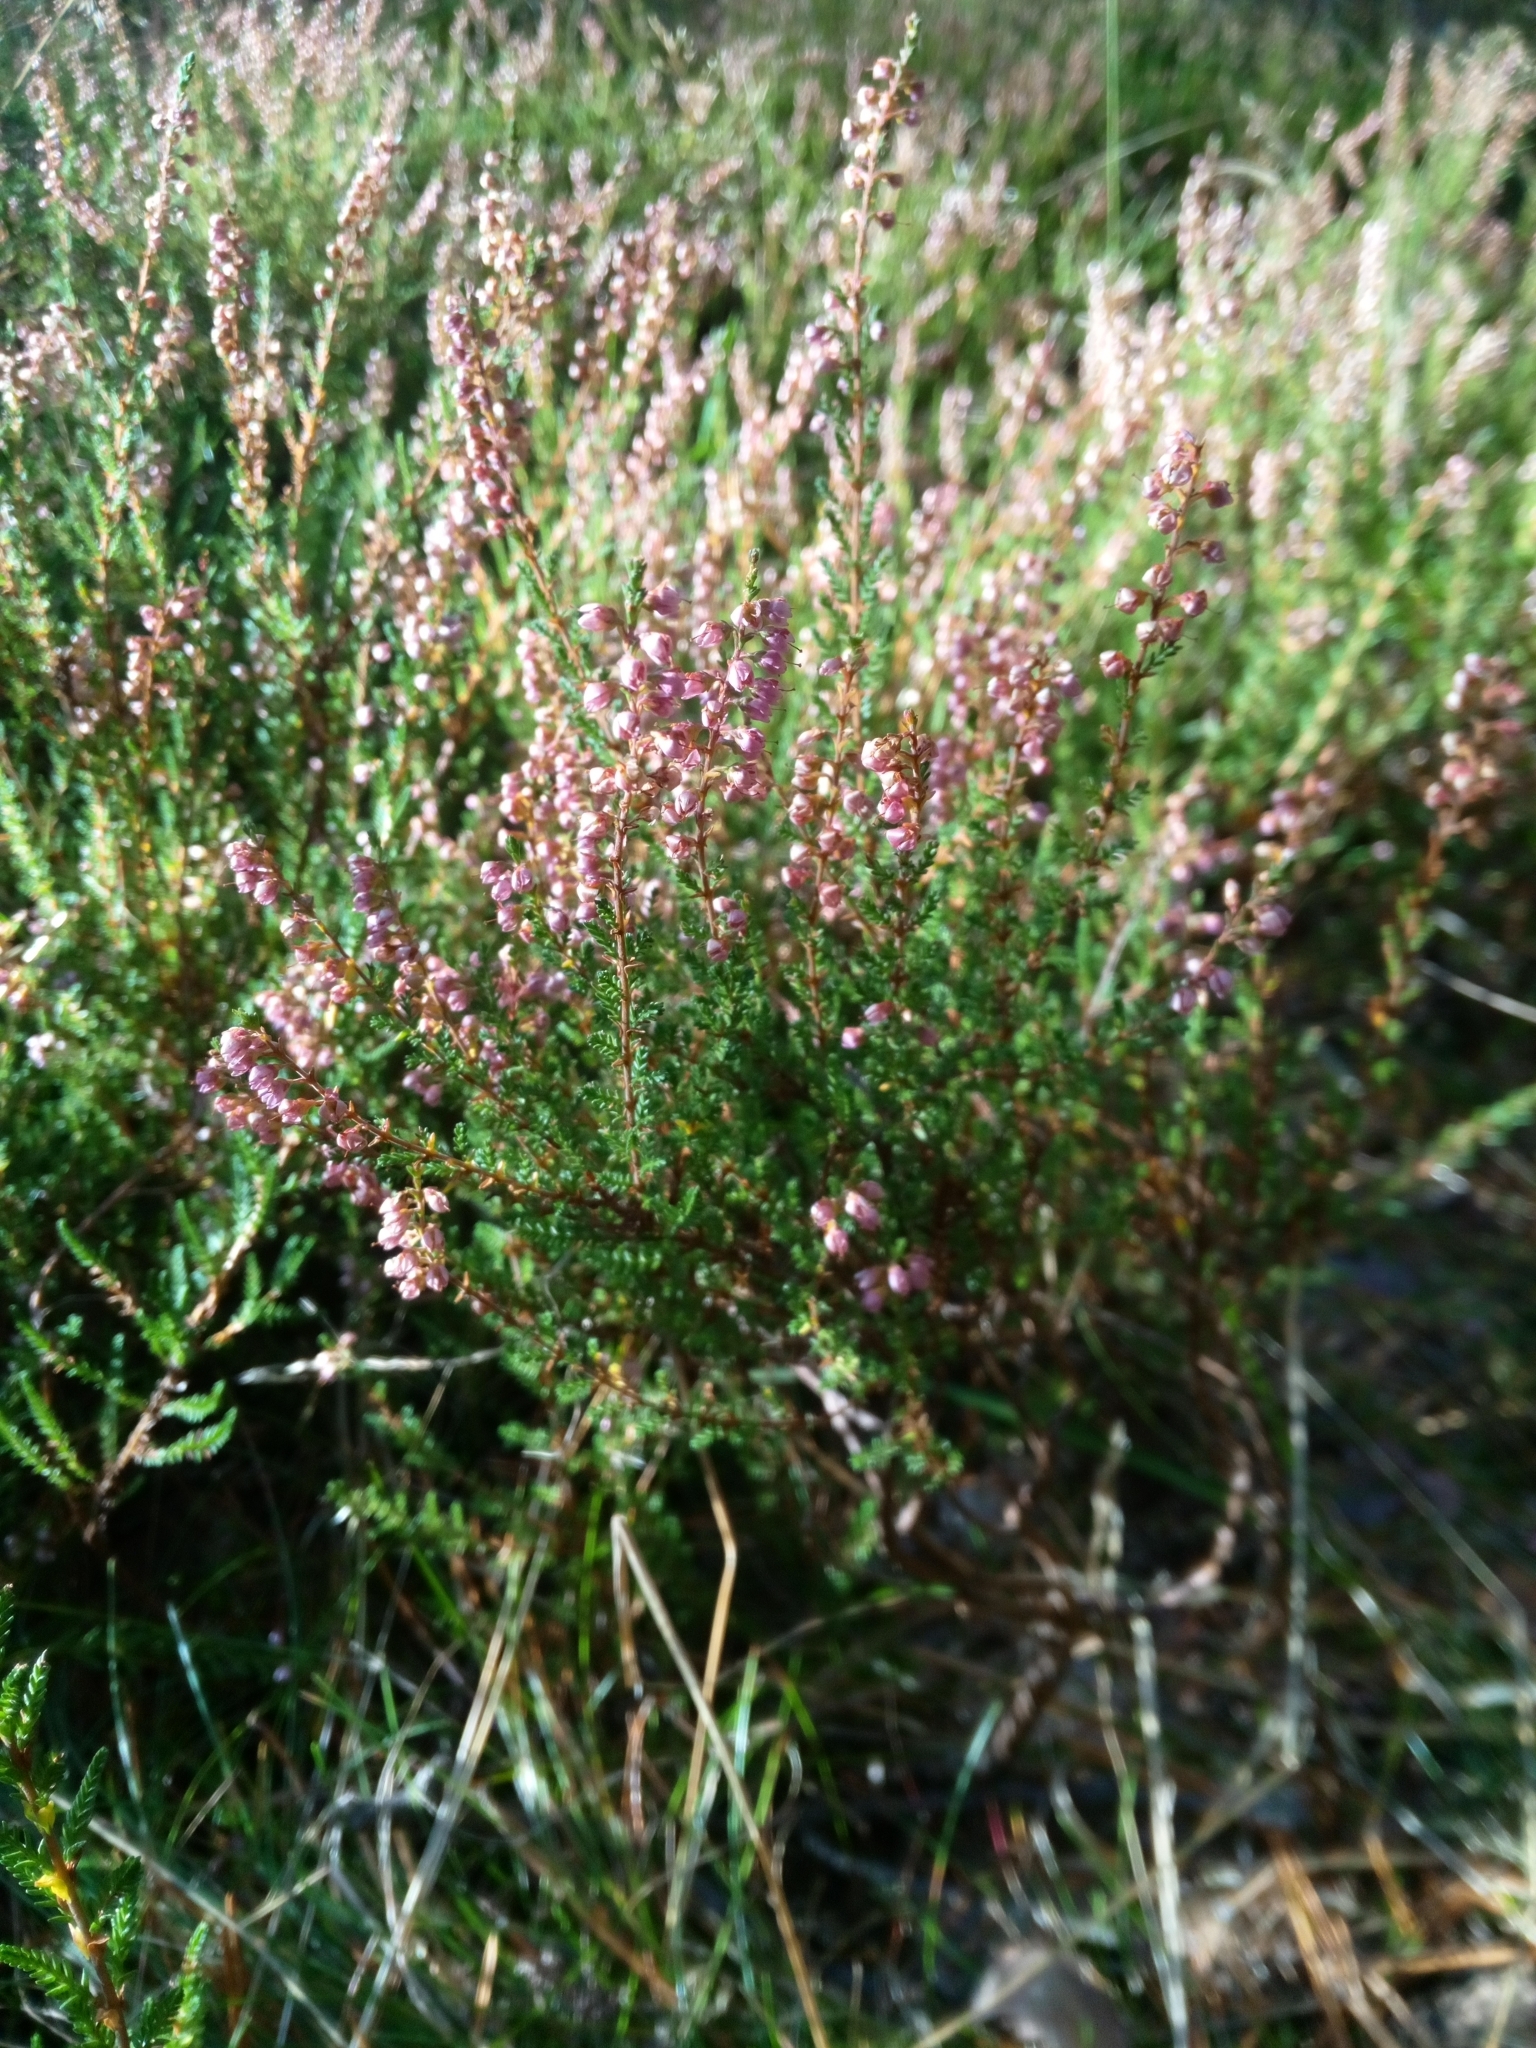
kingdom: Plantae
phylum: Tracheophyta
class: Magnoliopsida
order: Ericales
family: Ericaceae
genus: Calluna
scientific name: Calluna vulgaris
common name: Heather
